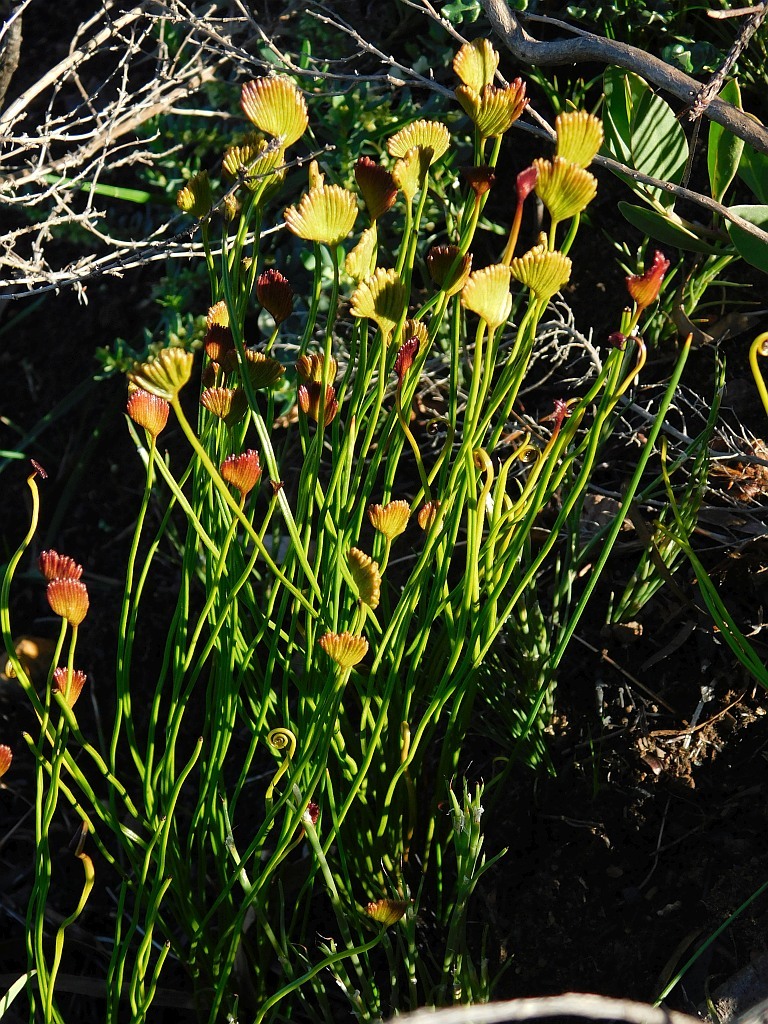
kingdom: Plantae
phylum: Tracheophyta
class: Polypodiopsida
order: Schizaeales
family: Schizaeaceae
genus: Schizaea
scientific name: Schizaea pectinata
